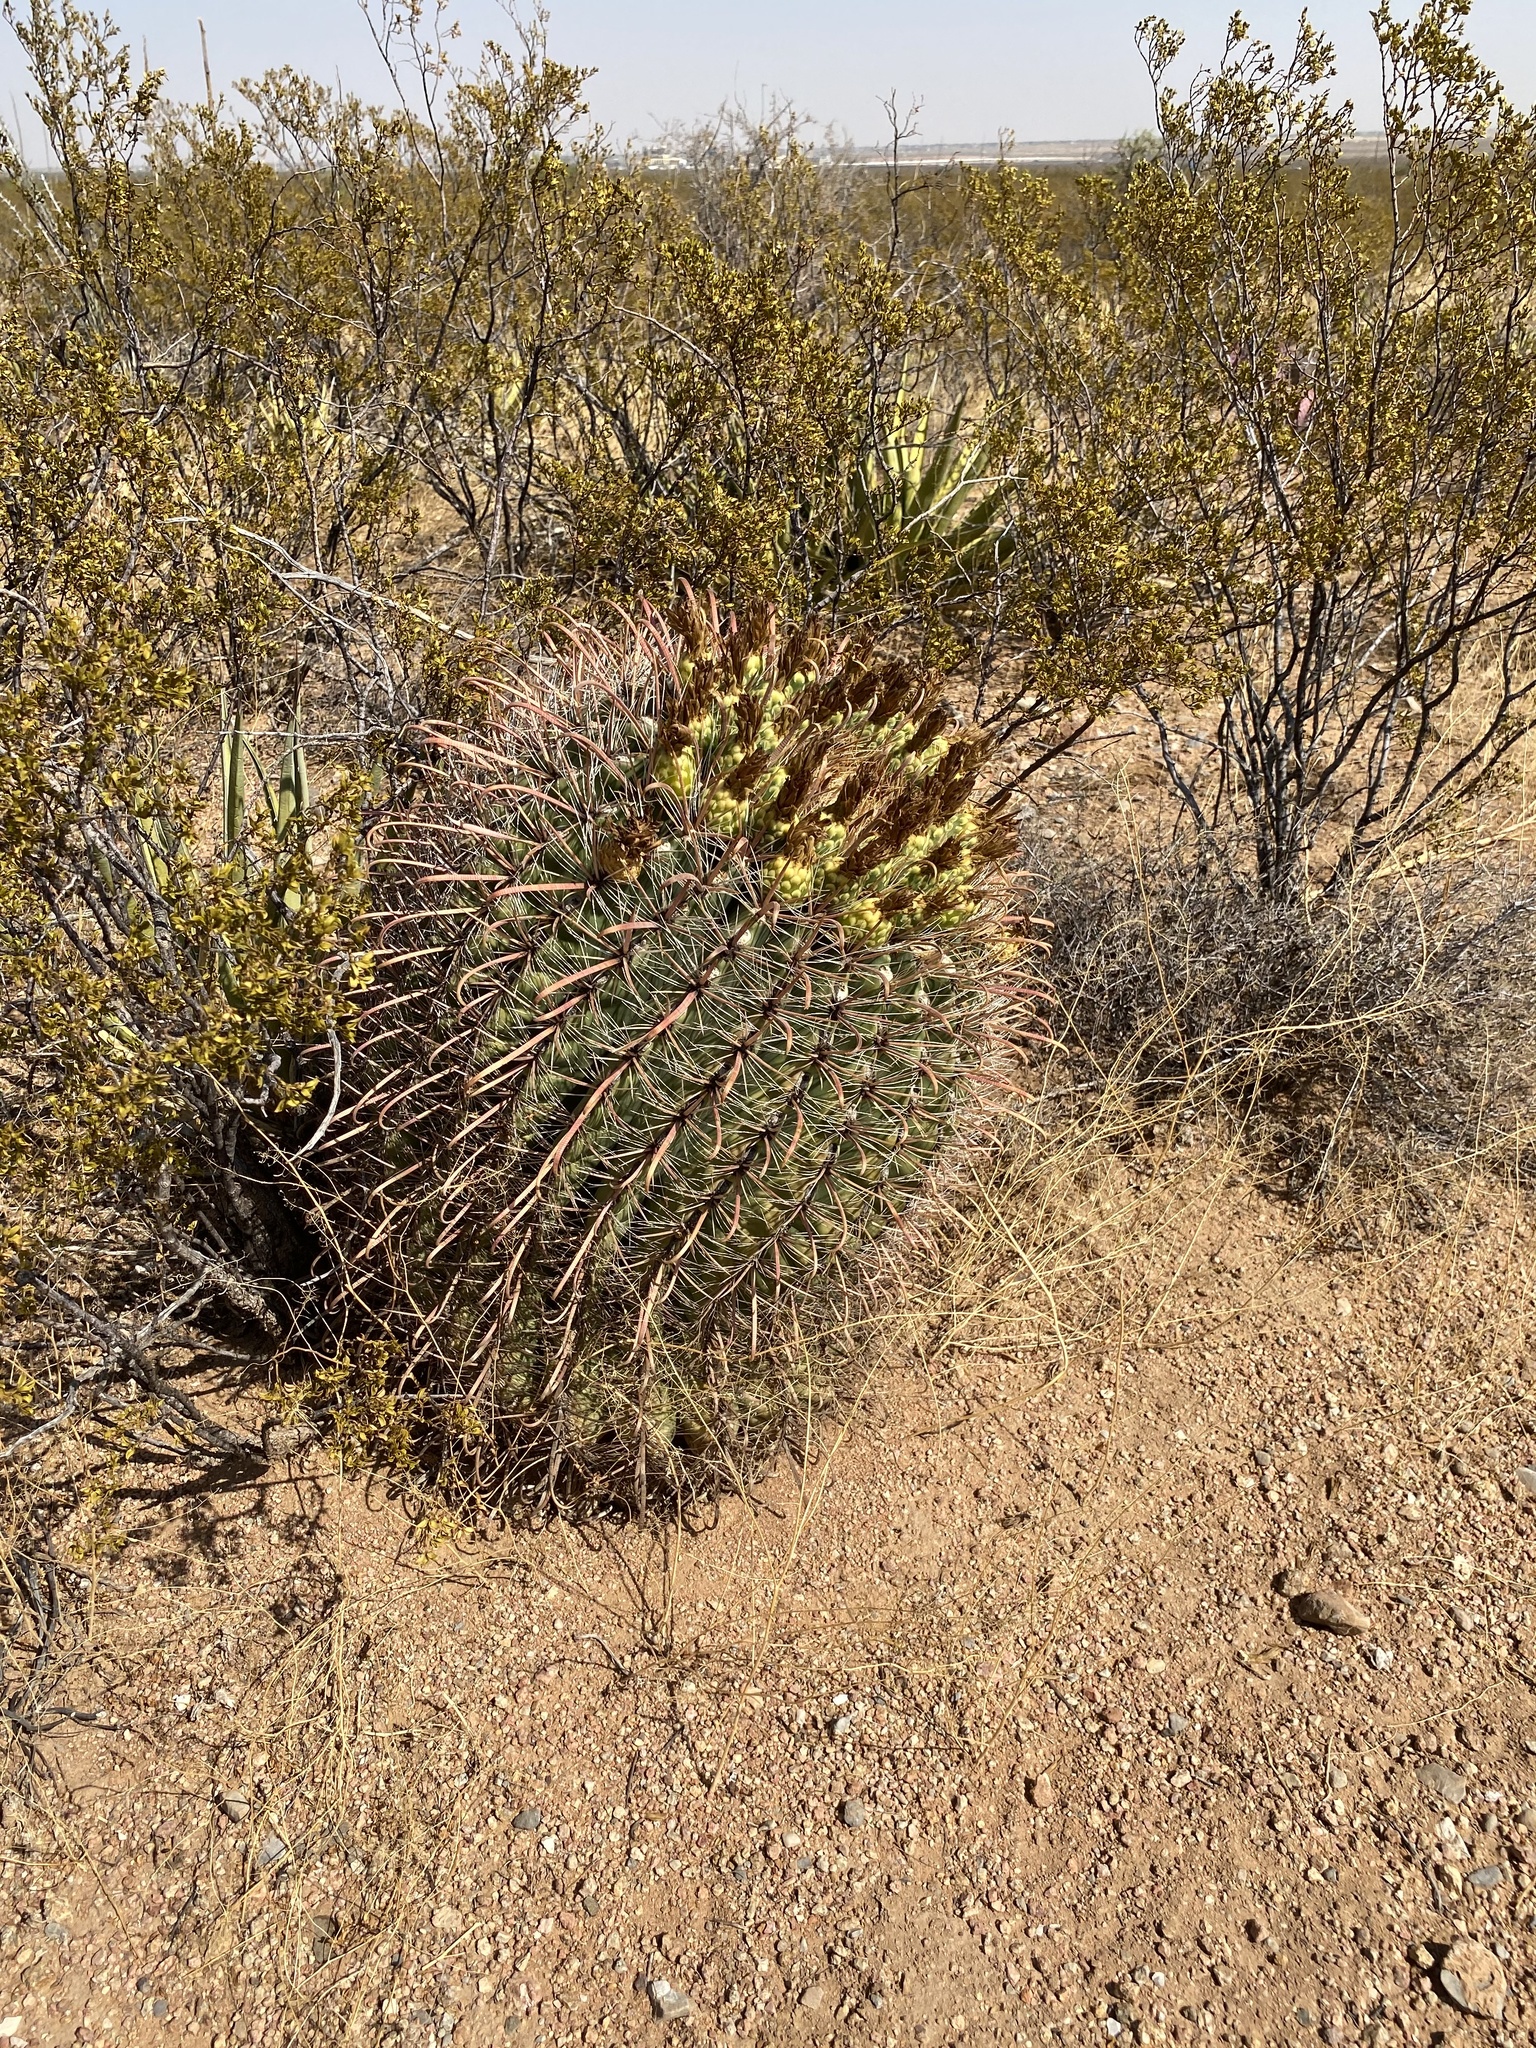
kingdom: Plantae
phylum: Tracheophyta
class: Magnoliopsida
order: Caryophyllales
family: Cactaceae
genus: Ferocactus
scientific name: Ferocactus wislizeni
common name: Candy barrel cactus
